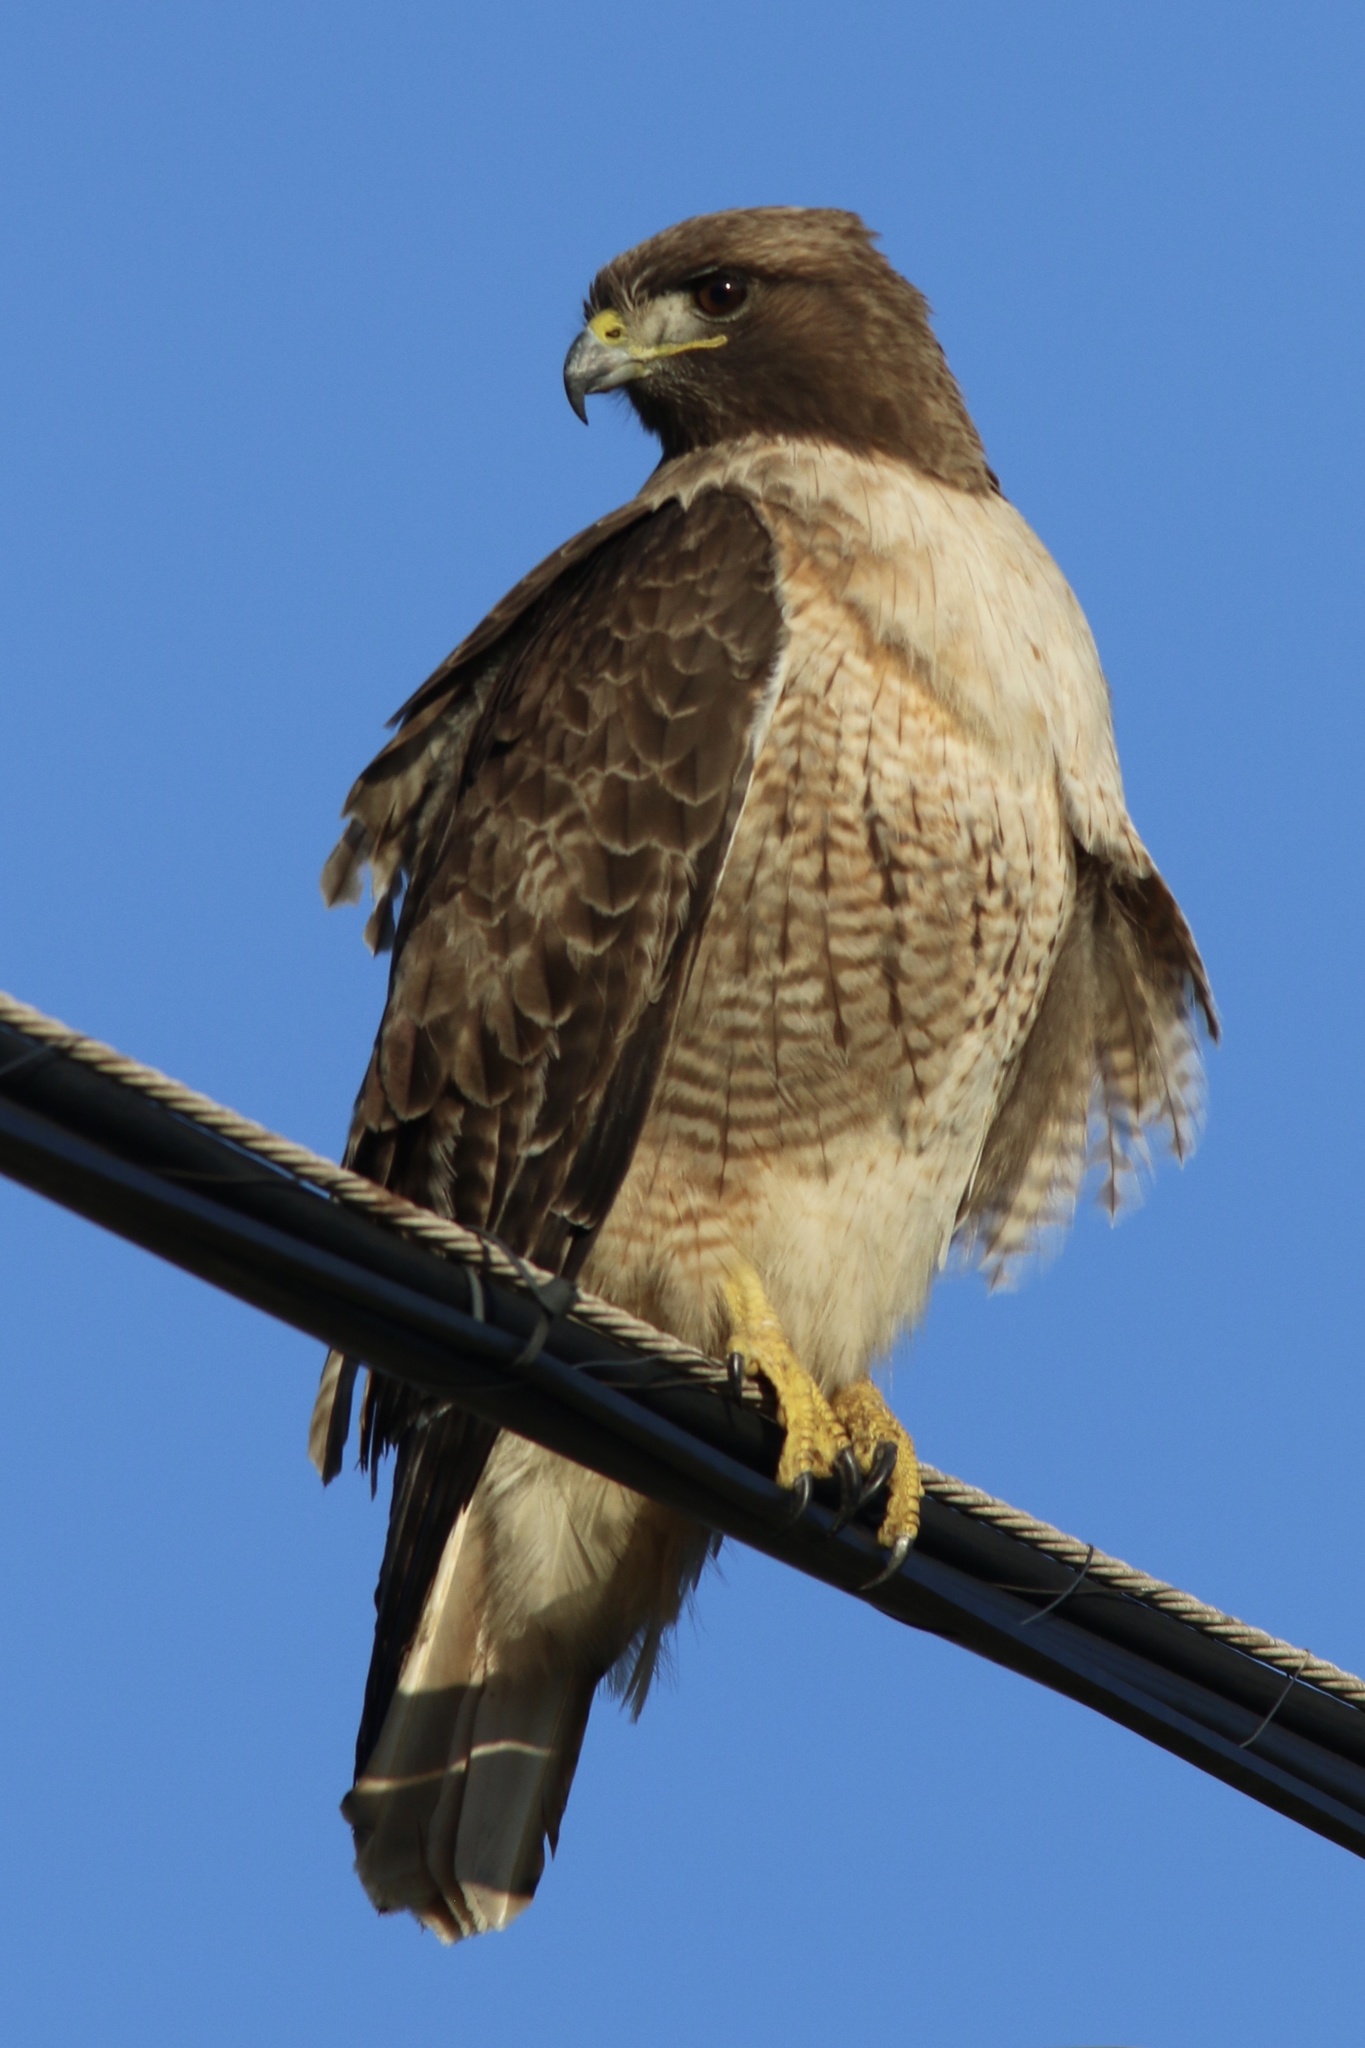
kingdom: Animalia
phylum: Chordata
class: Aves
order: Accipitriformes
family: Accipitridae
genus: Buteo
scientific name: Buteo jamaicensis
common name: Red-tailed hawk
